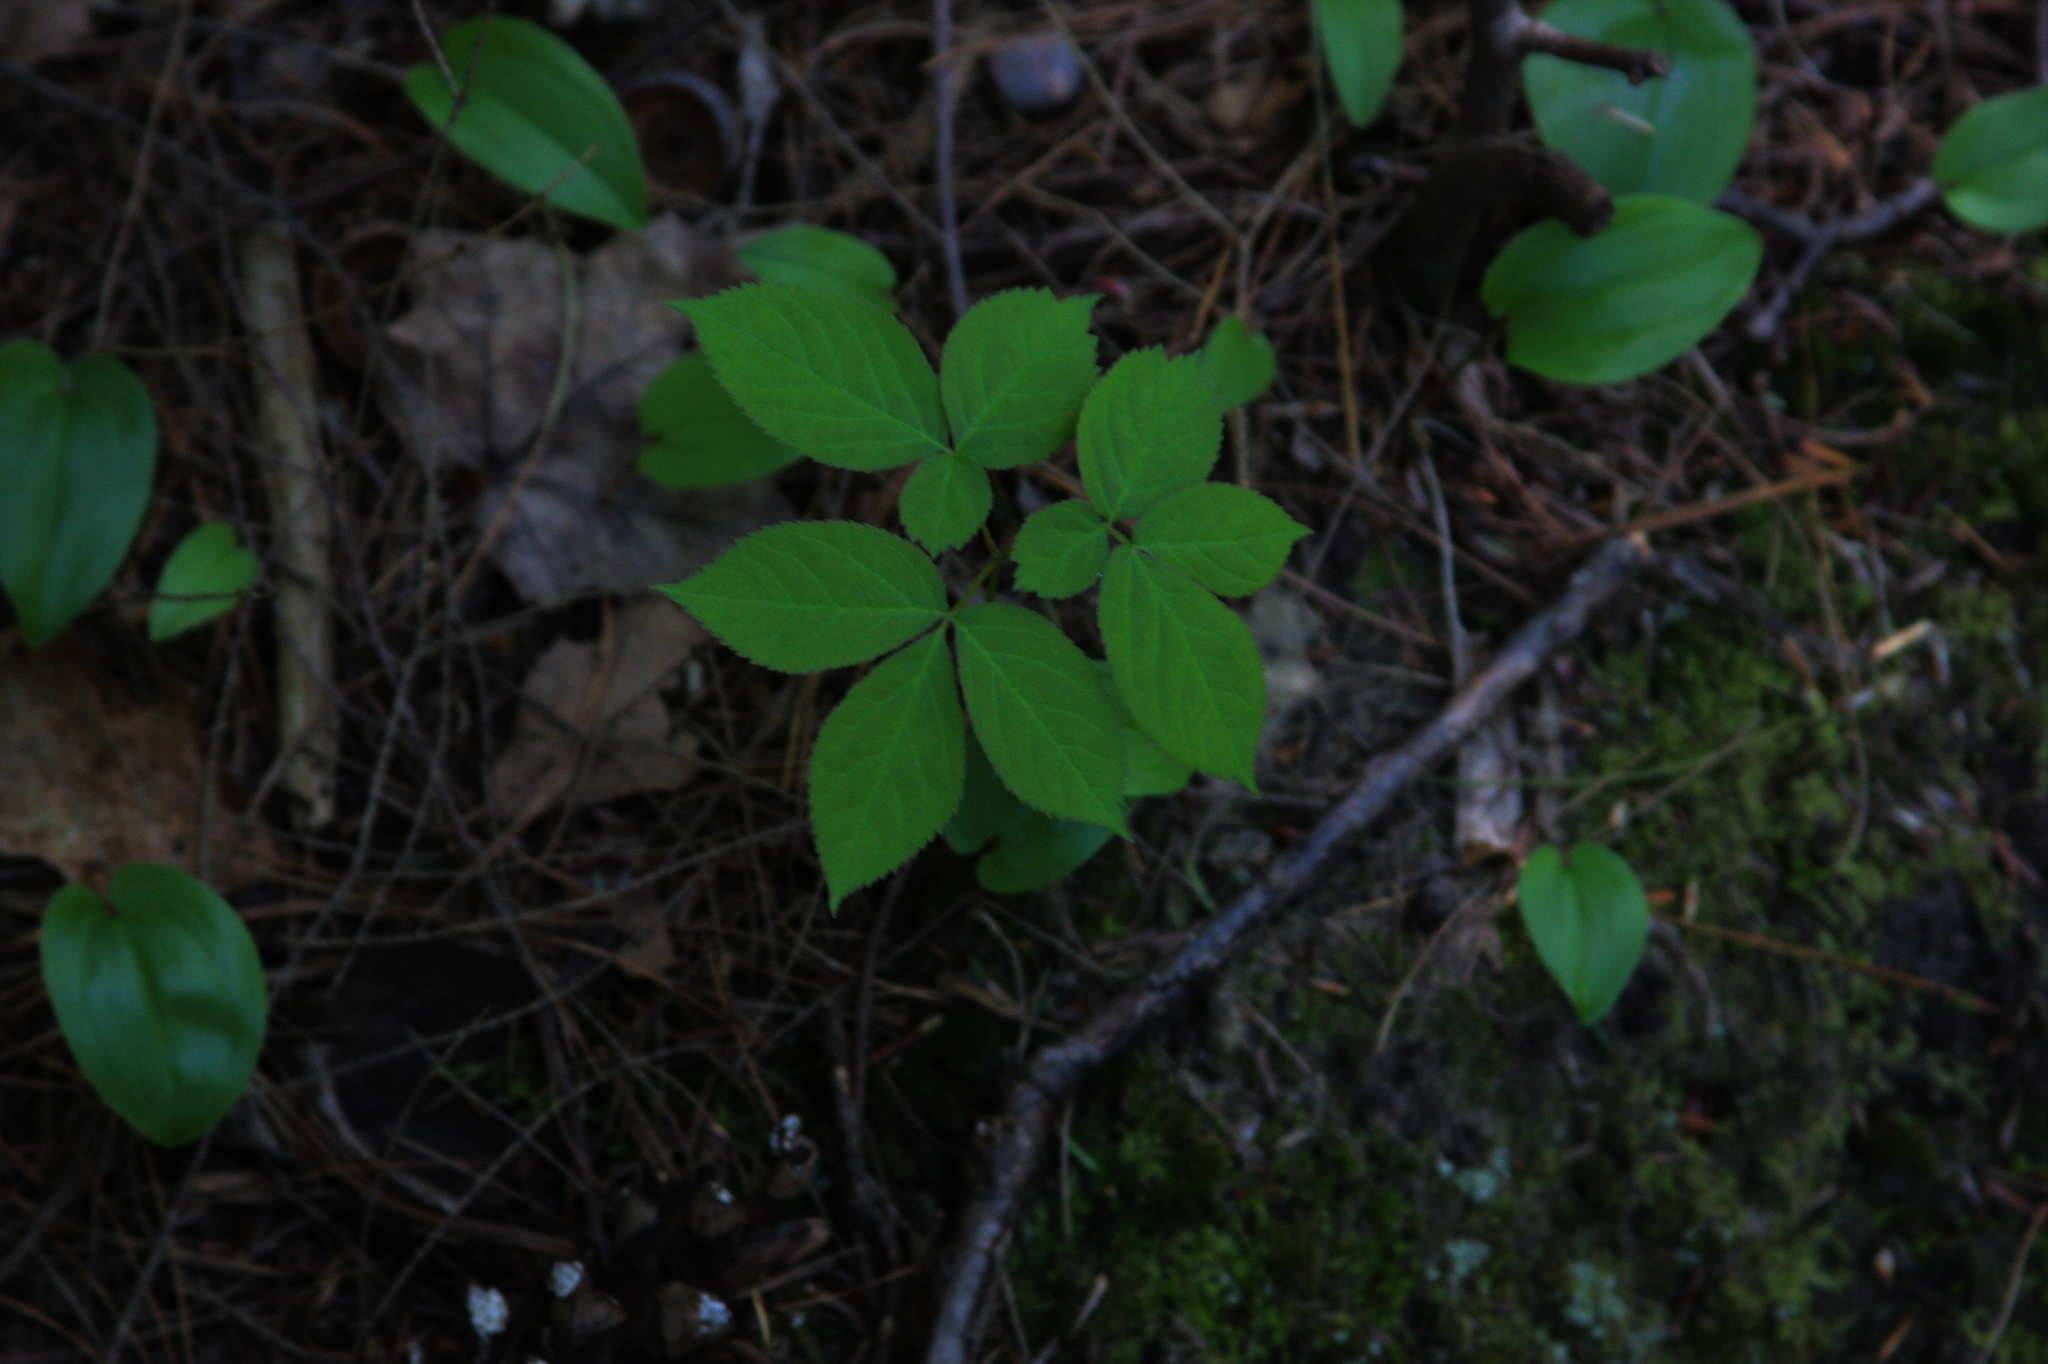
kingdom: Plantae
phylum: Tracheophyta
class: Magnoliopsida
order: Apiales
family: Araliaceae
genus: Aralia
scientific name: Aralia nudicaulis
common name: Wild sarsaparilla
